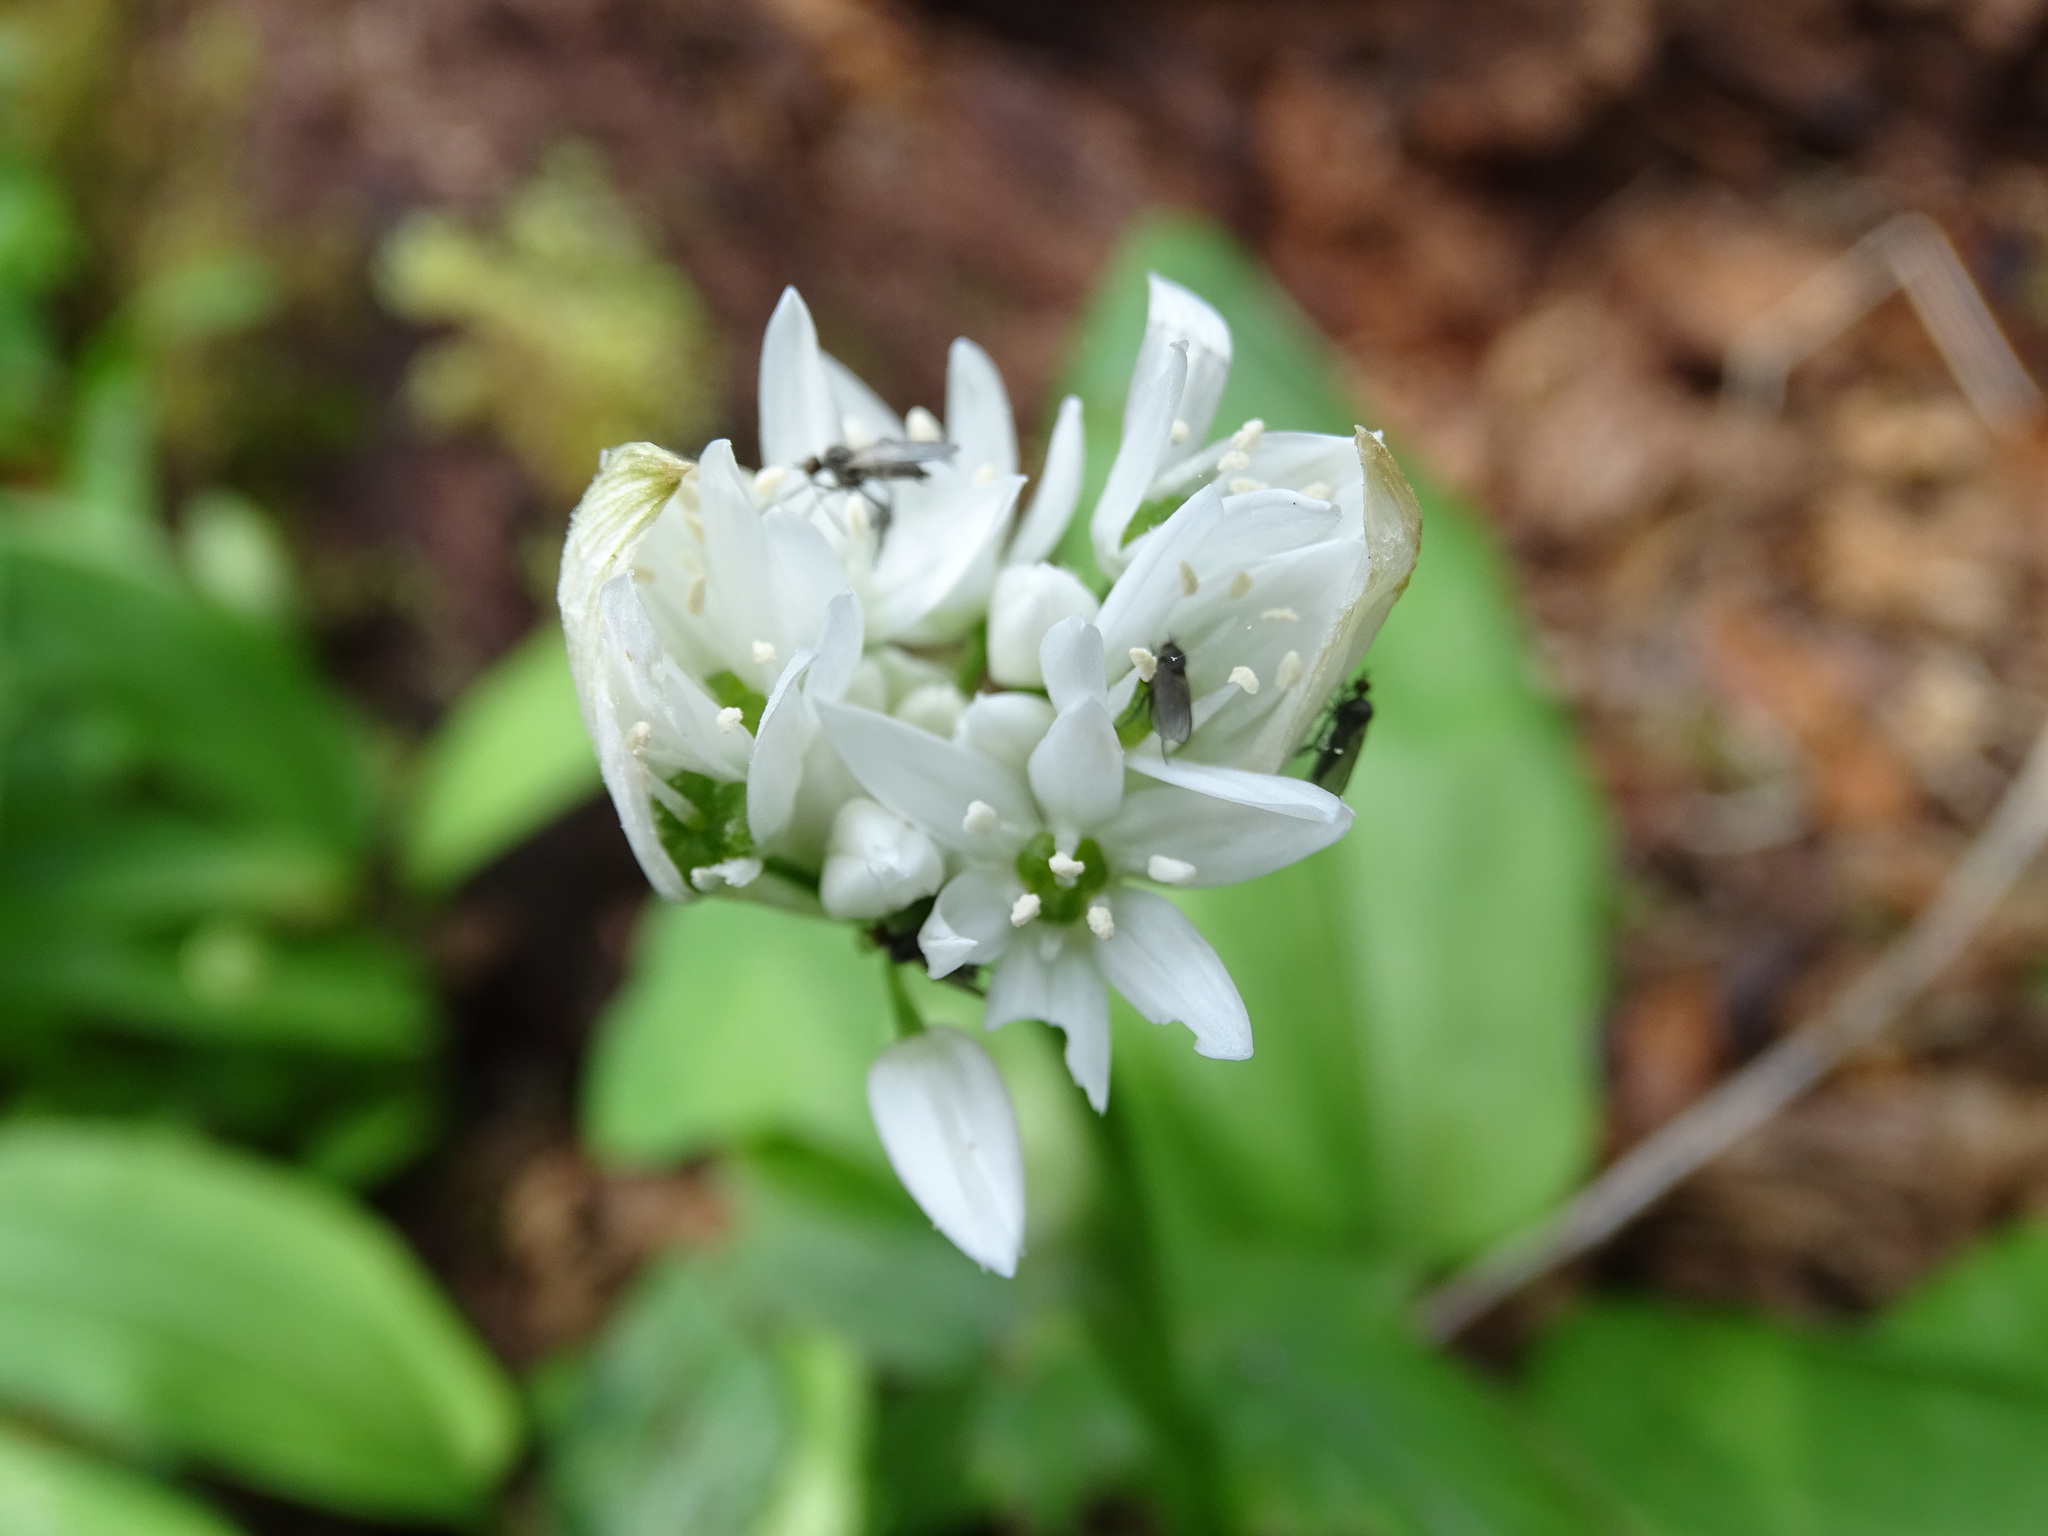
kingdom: Plantae
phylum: Tracheophyta
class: Liliopsida
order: Asparagales
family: Amaryllidaceae
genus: Allium
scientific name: Allium ursinum
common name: Ramsons
